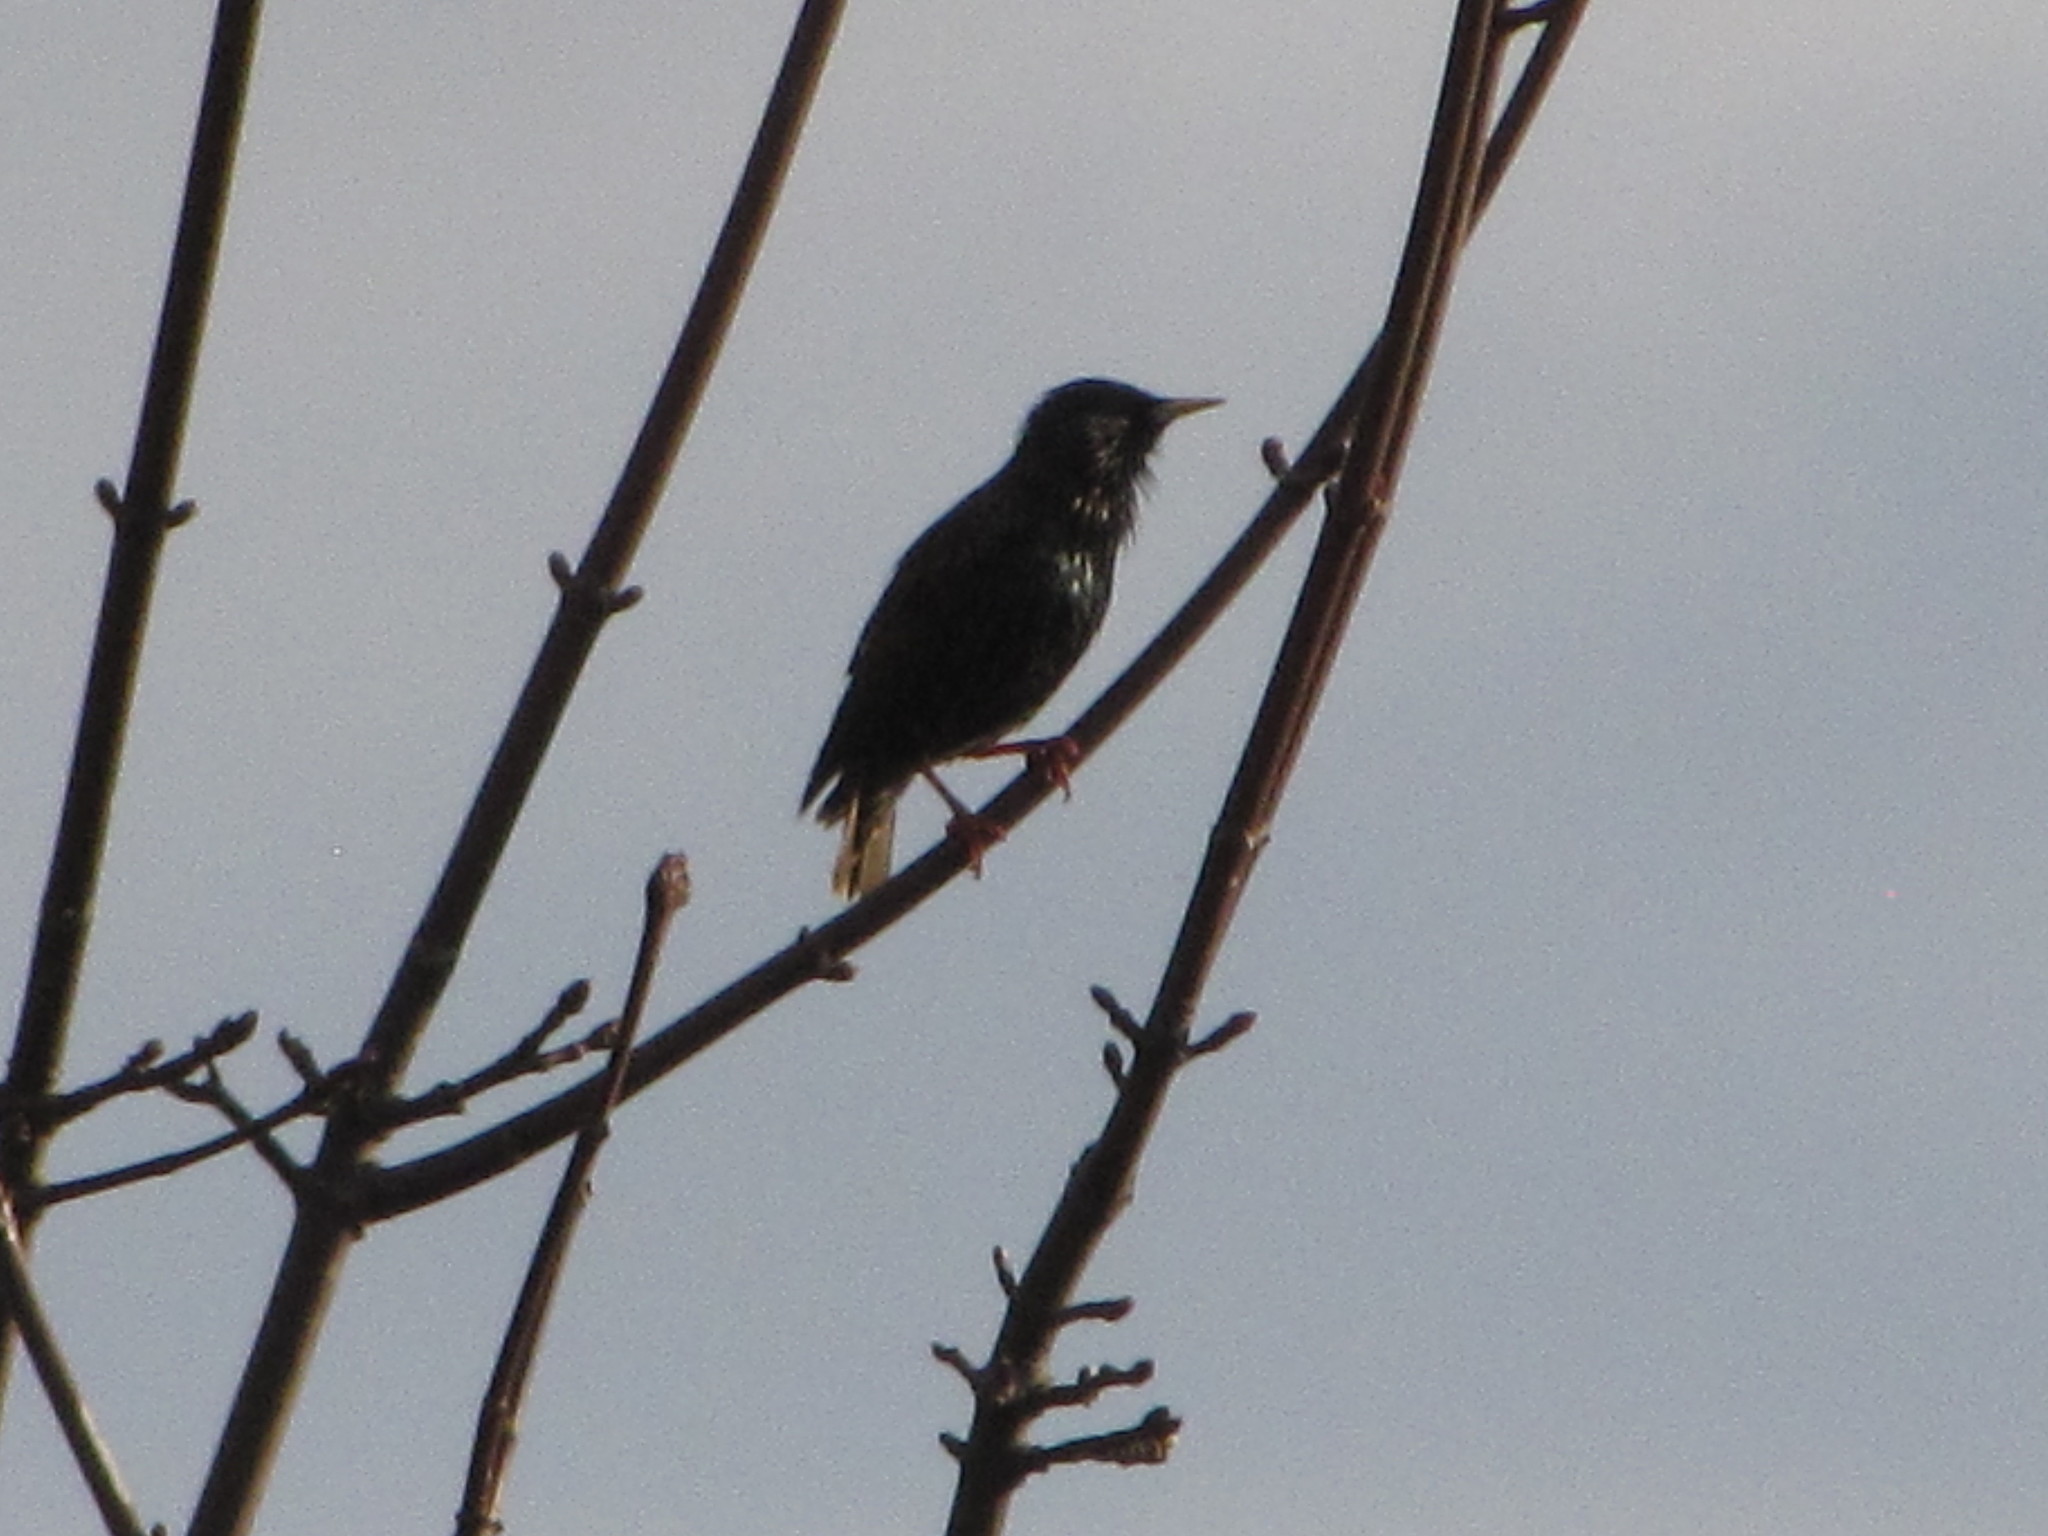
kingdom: Animalia
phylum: Chordata
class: Aves
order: Passeriformes
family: Sturnidae
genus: Sturnus
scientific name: Sturnus vulgaris
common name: Common starling
